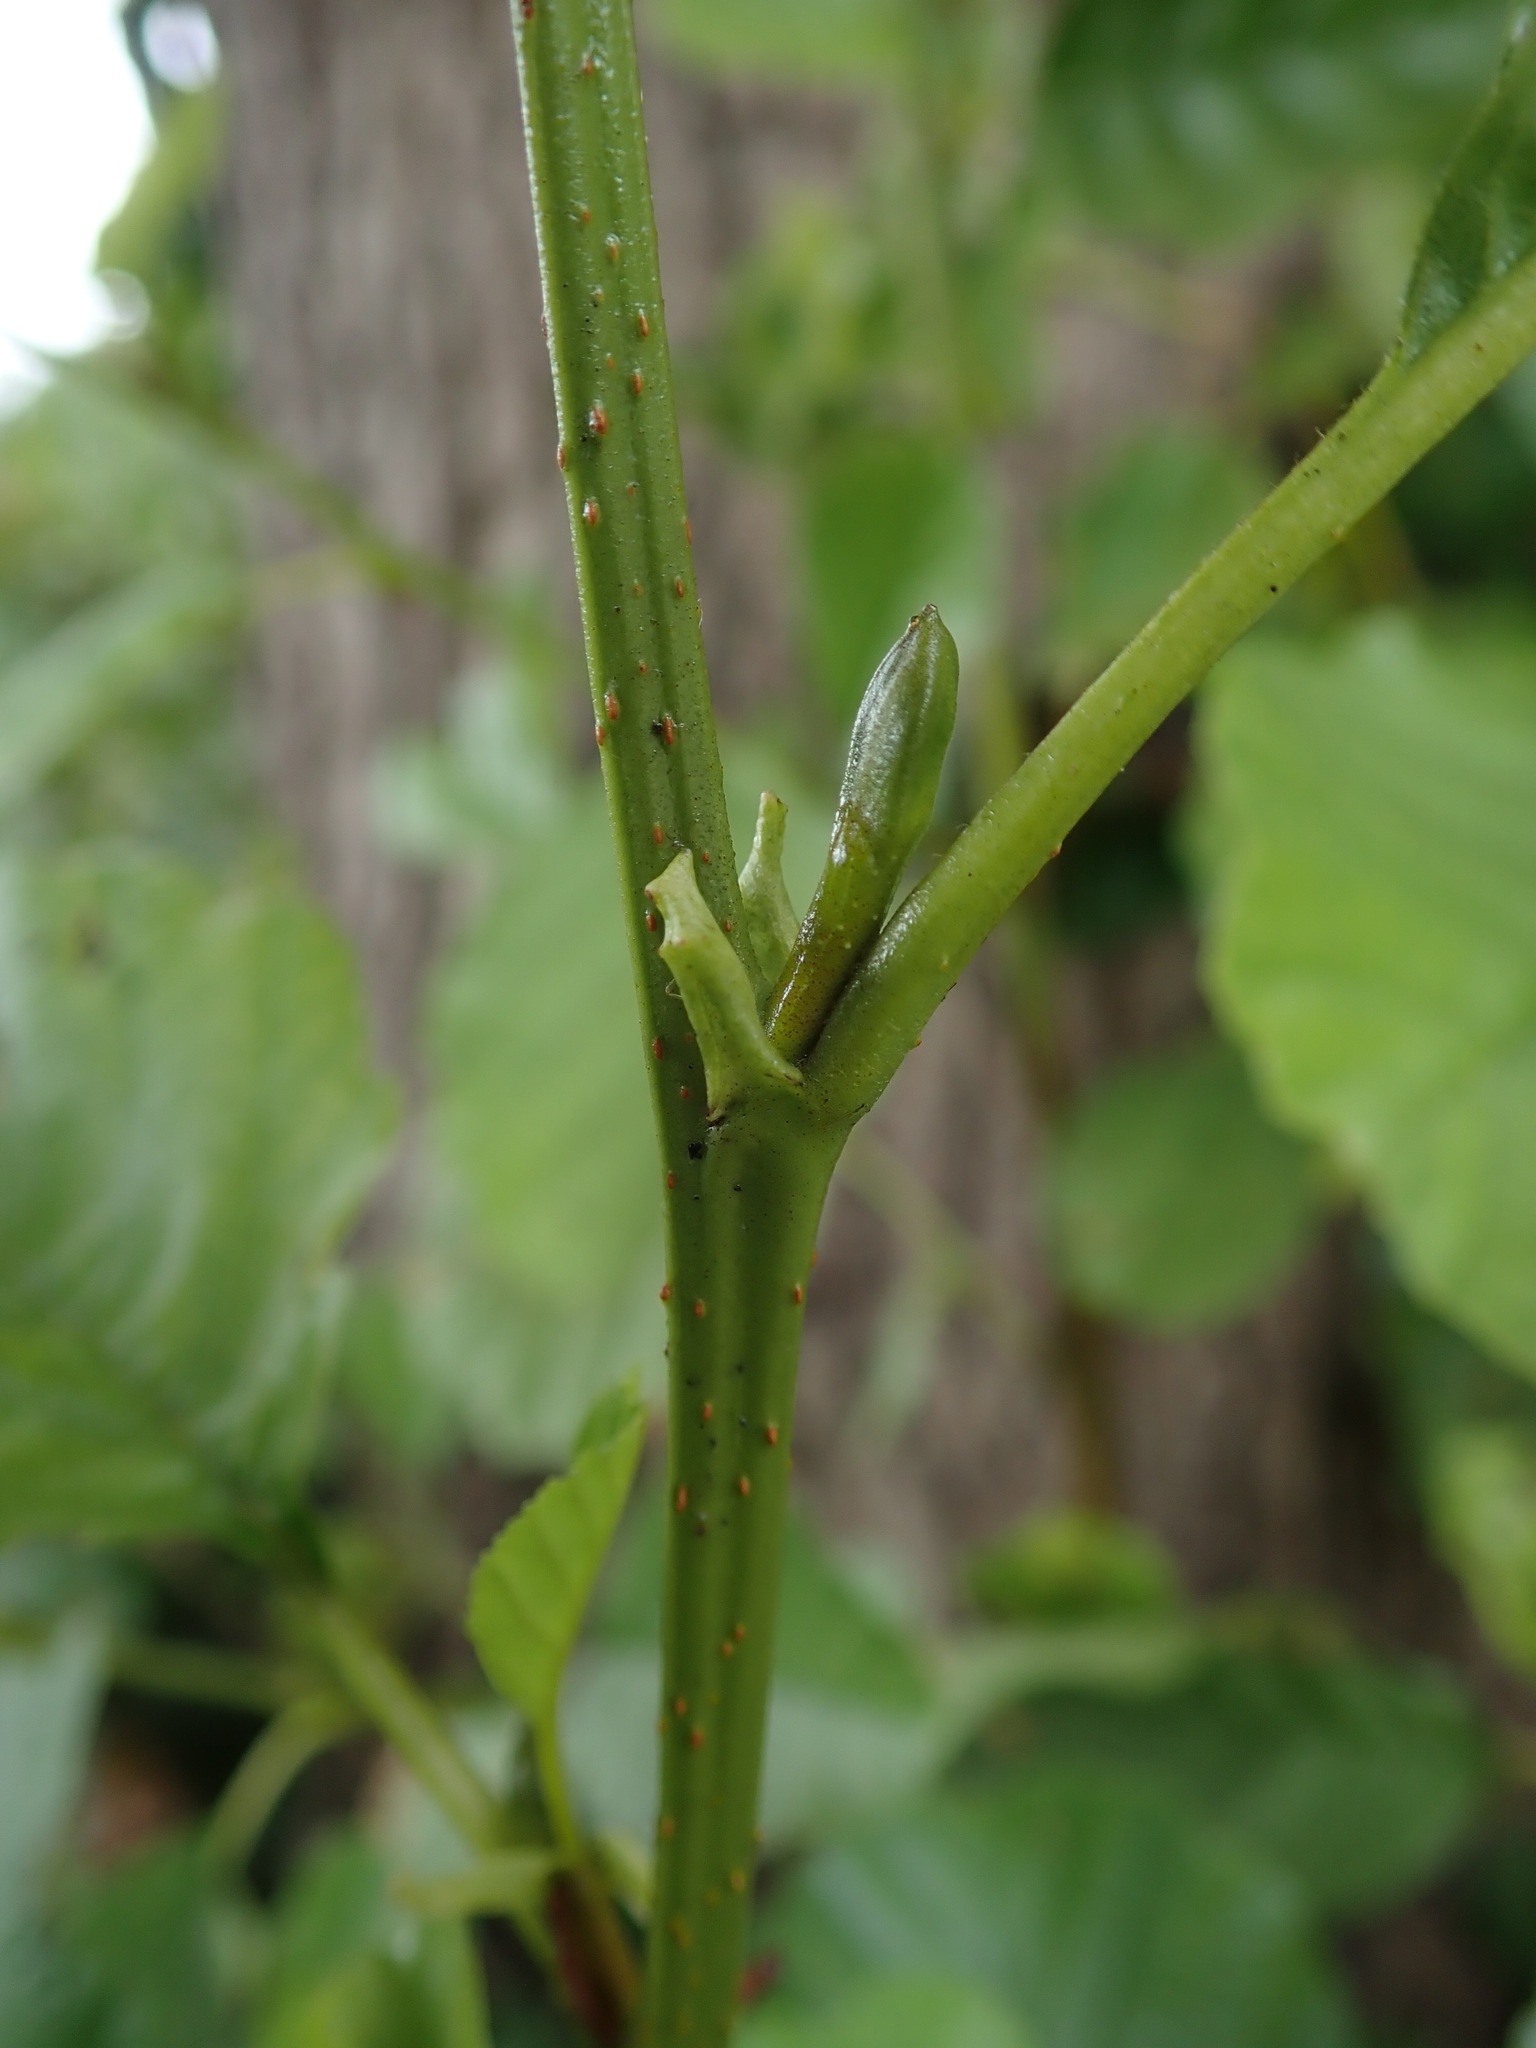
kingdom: Plantae
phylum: Tracheophyta
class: Magnoliopsida
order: Fagales
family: Betulaceae
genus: Alnus
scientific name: Alnus glutinosa
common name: Black alder
